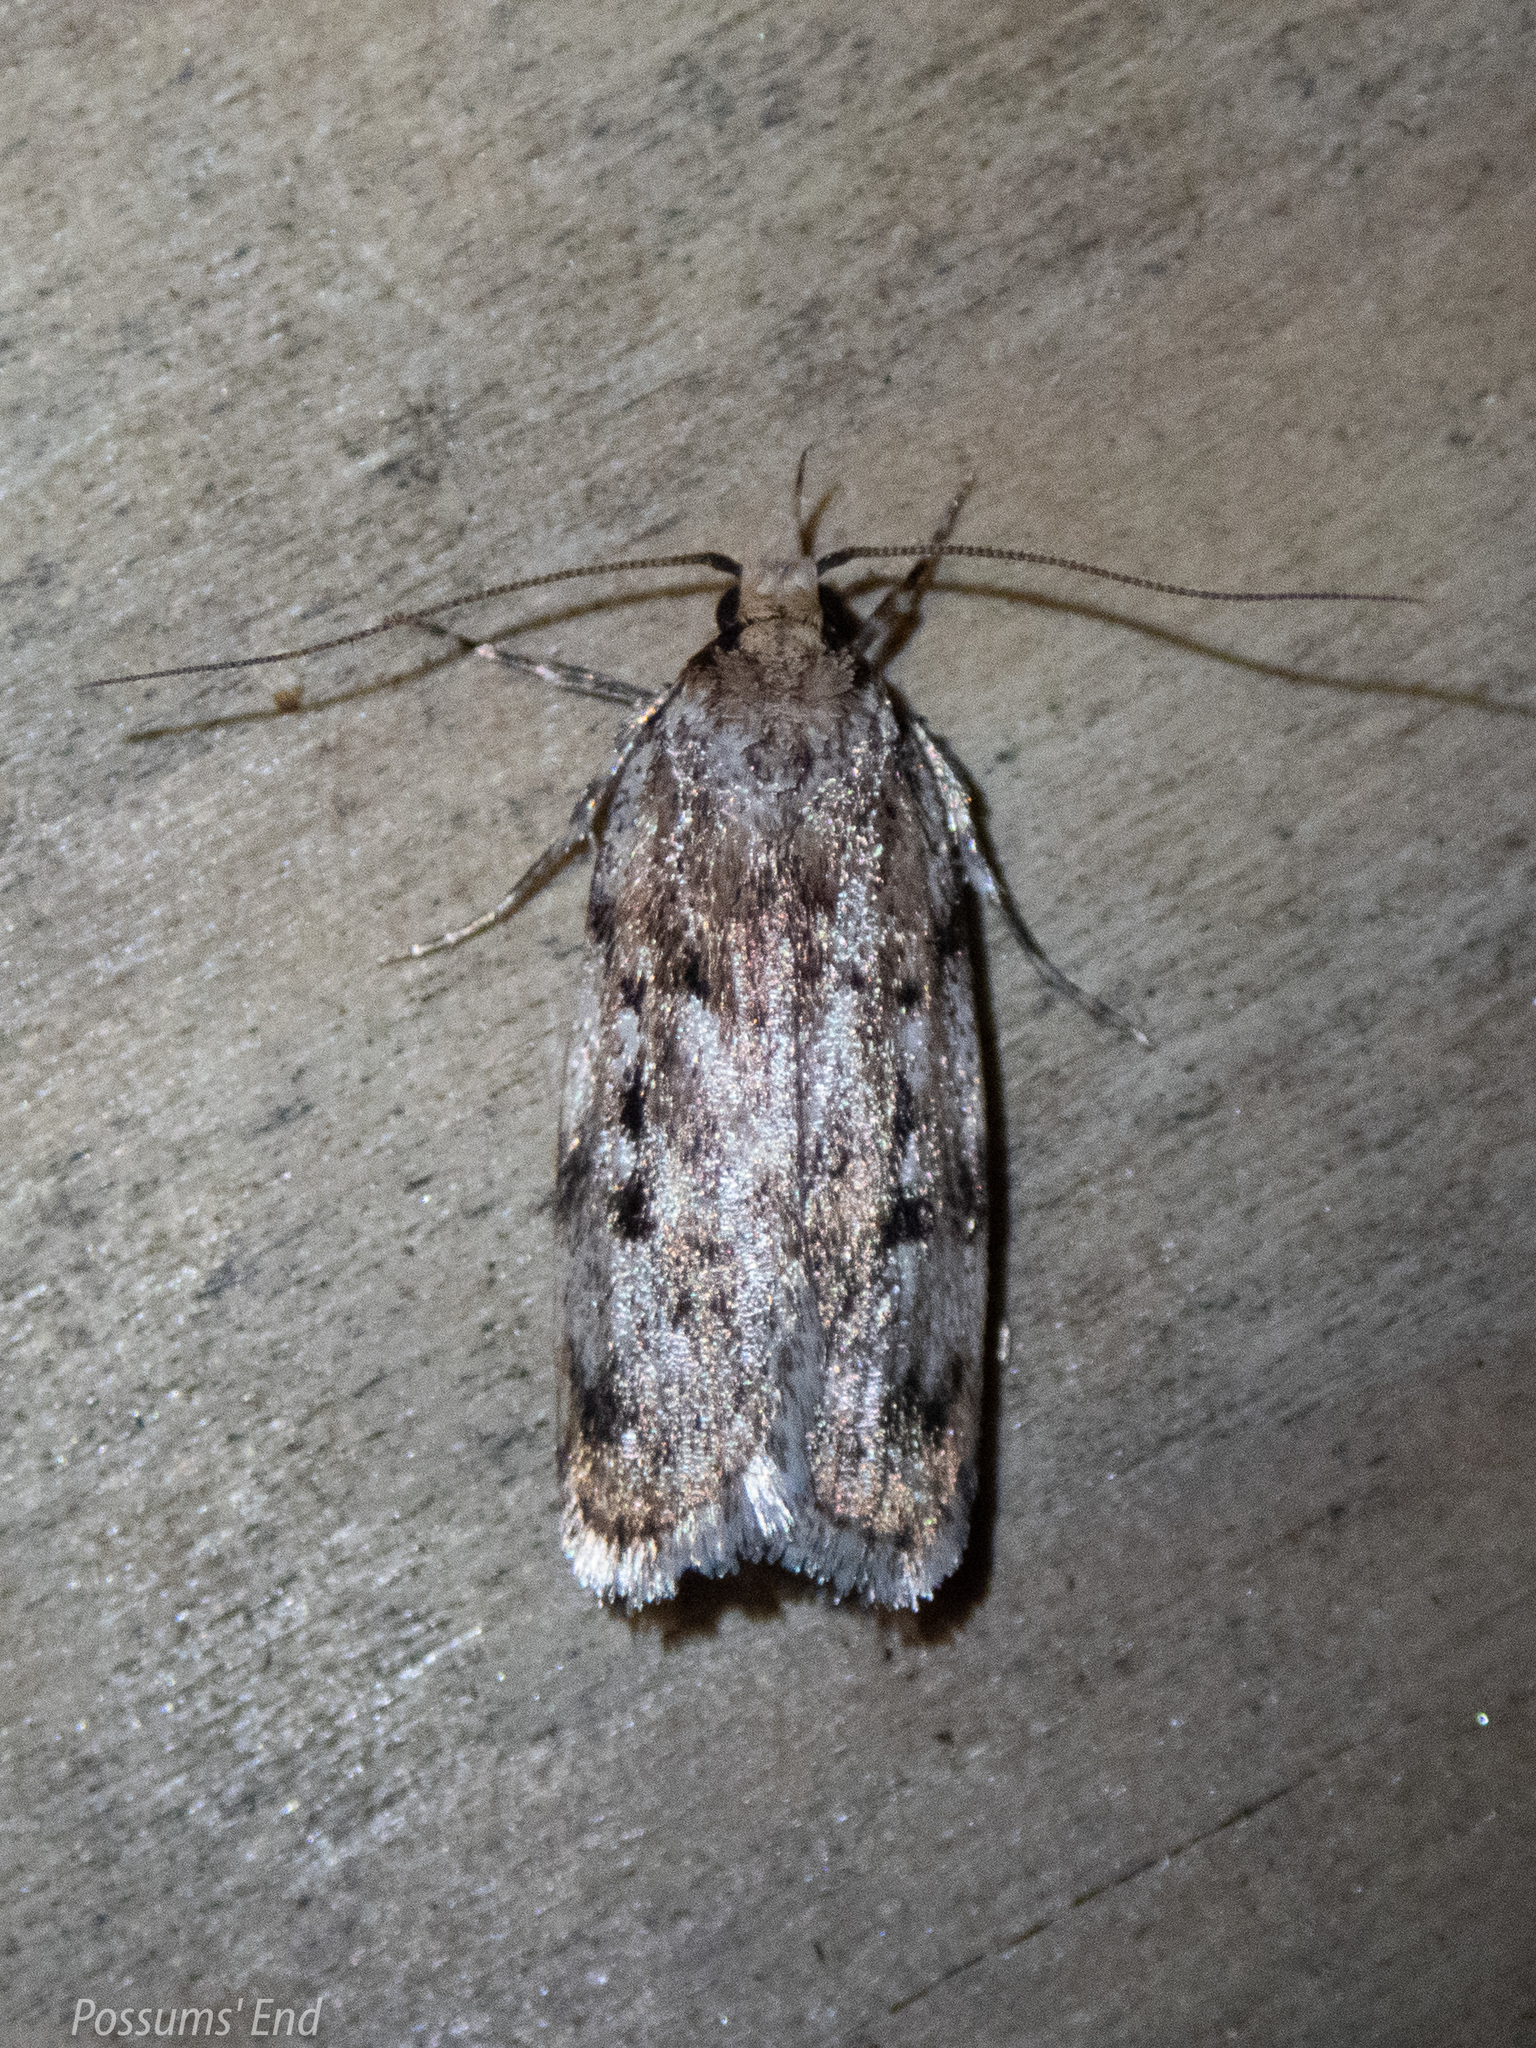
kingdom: Animalia
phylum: Arthropoda
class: Insecta
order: Lepidoptera
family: Oecophoridae
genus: Barea
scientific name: Barea exarcha
